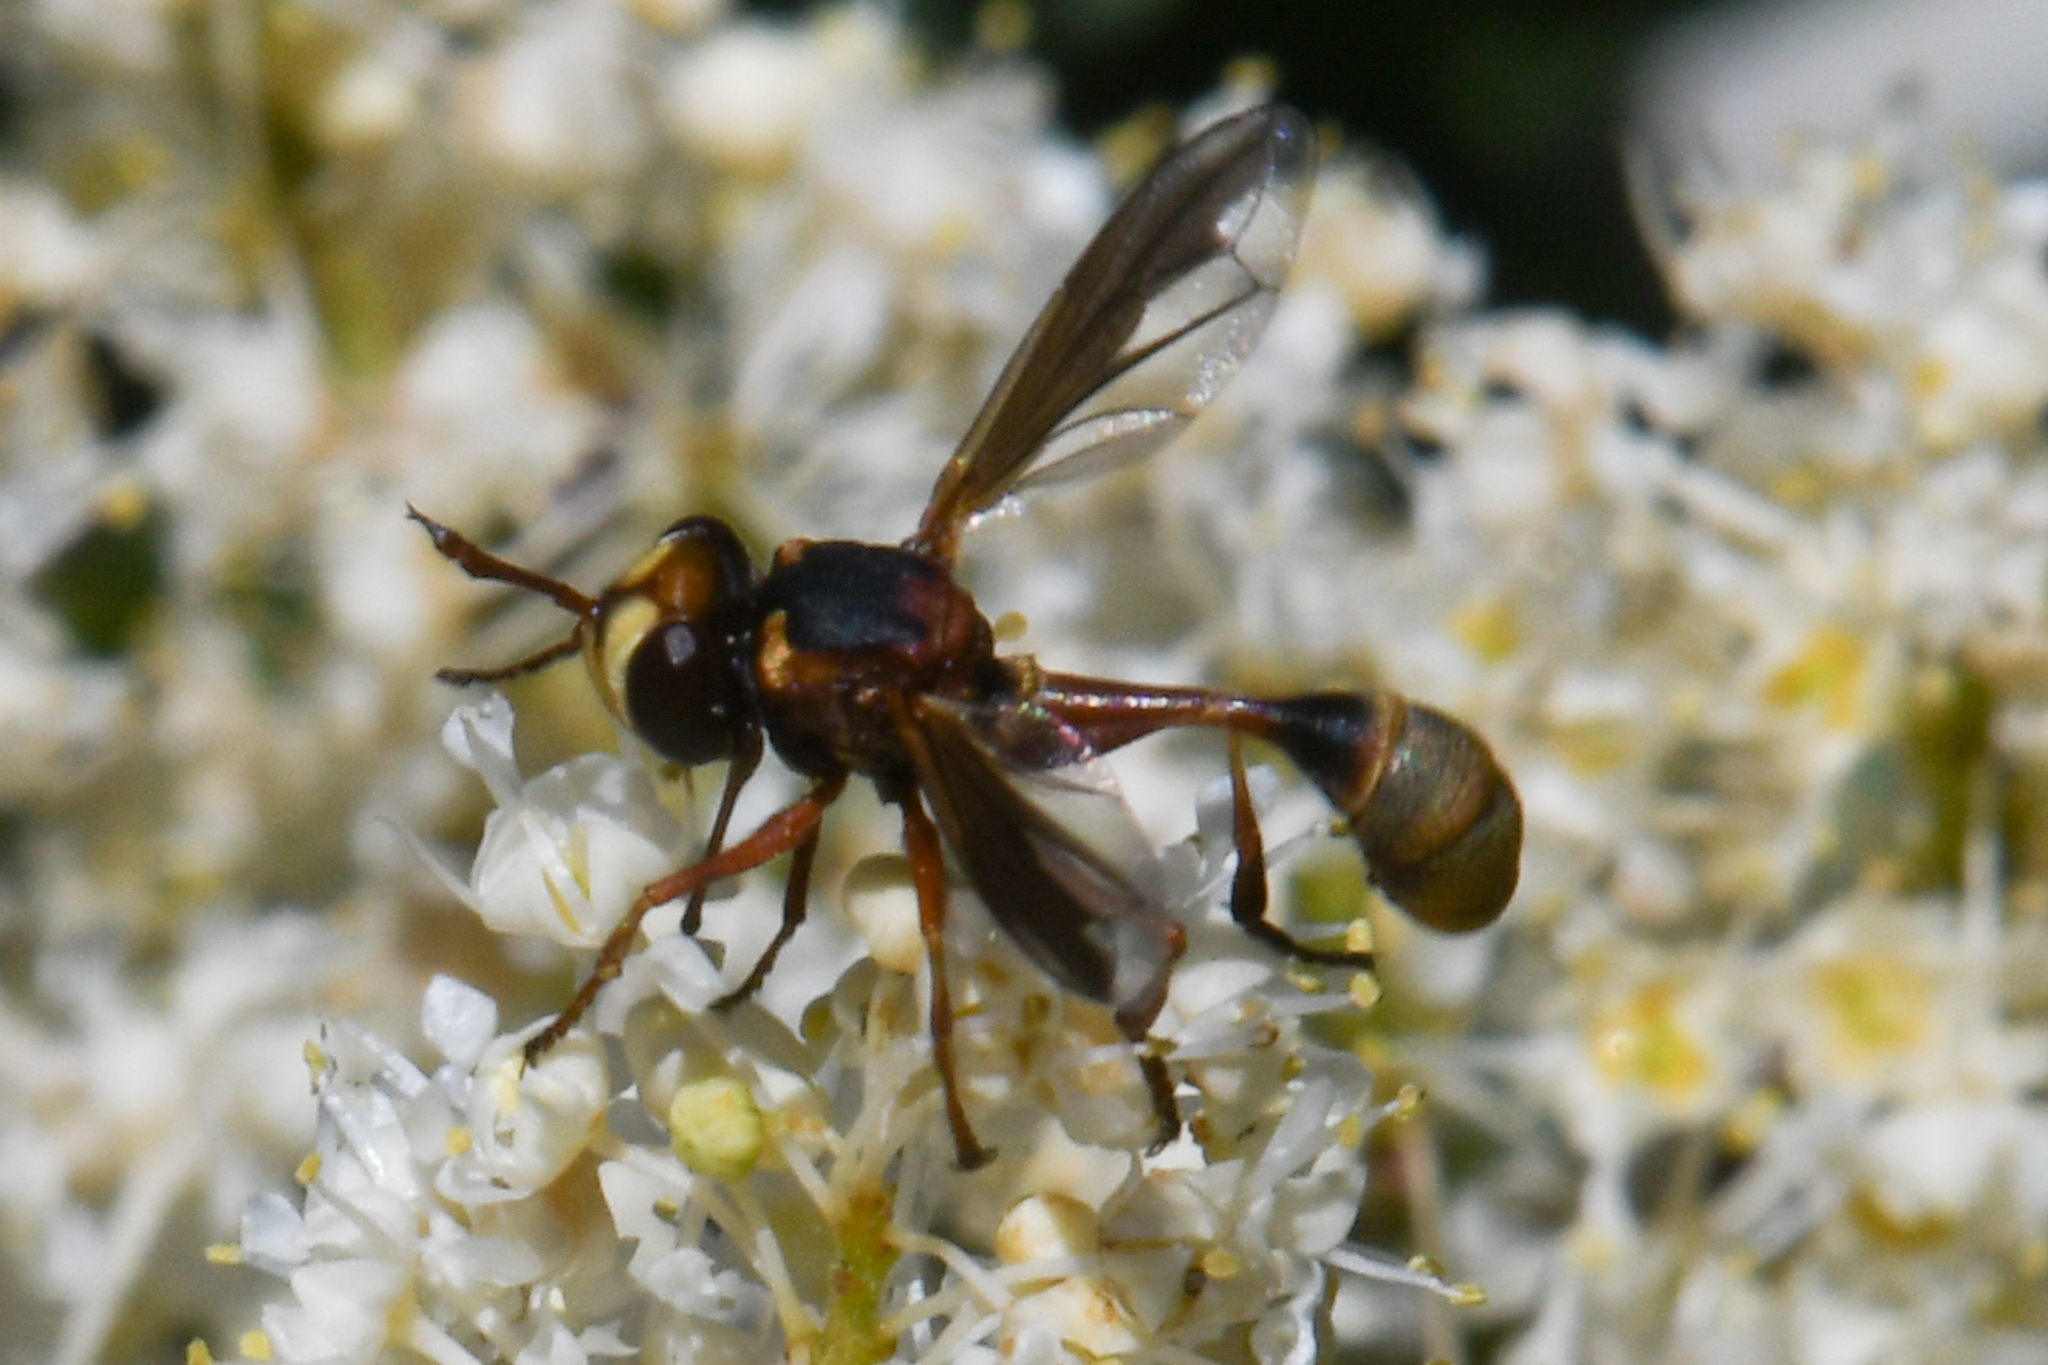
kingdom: Animalia
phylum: Arthropoda
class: Insecta
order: Diptera
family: Conopidae
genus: Physocephala
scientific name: Physocephala texana
